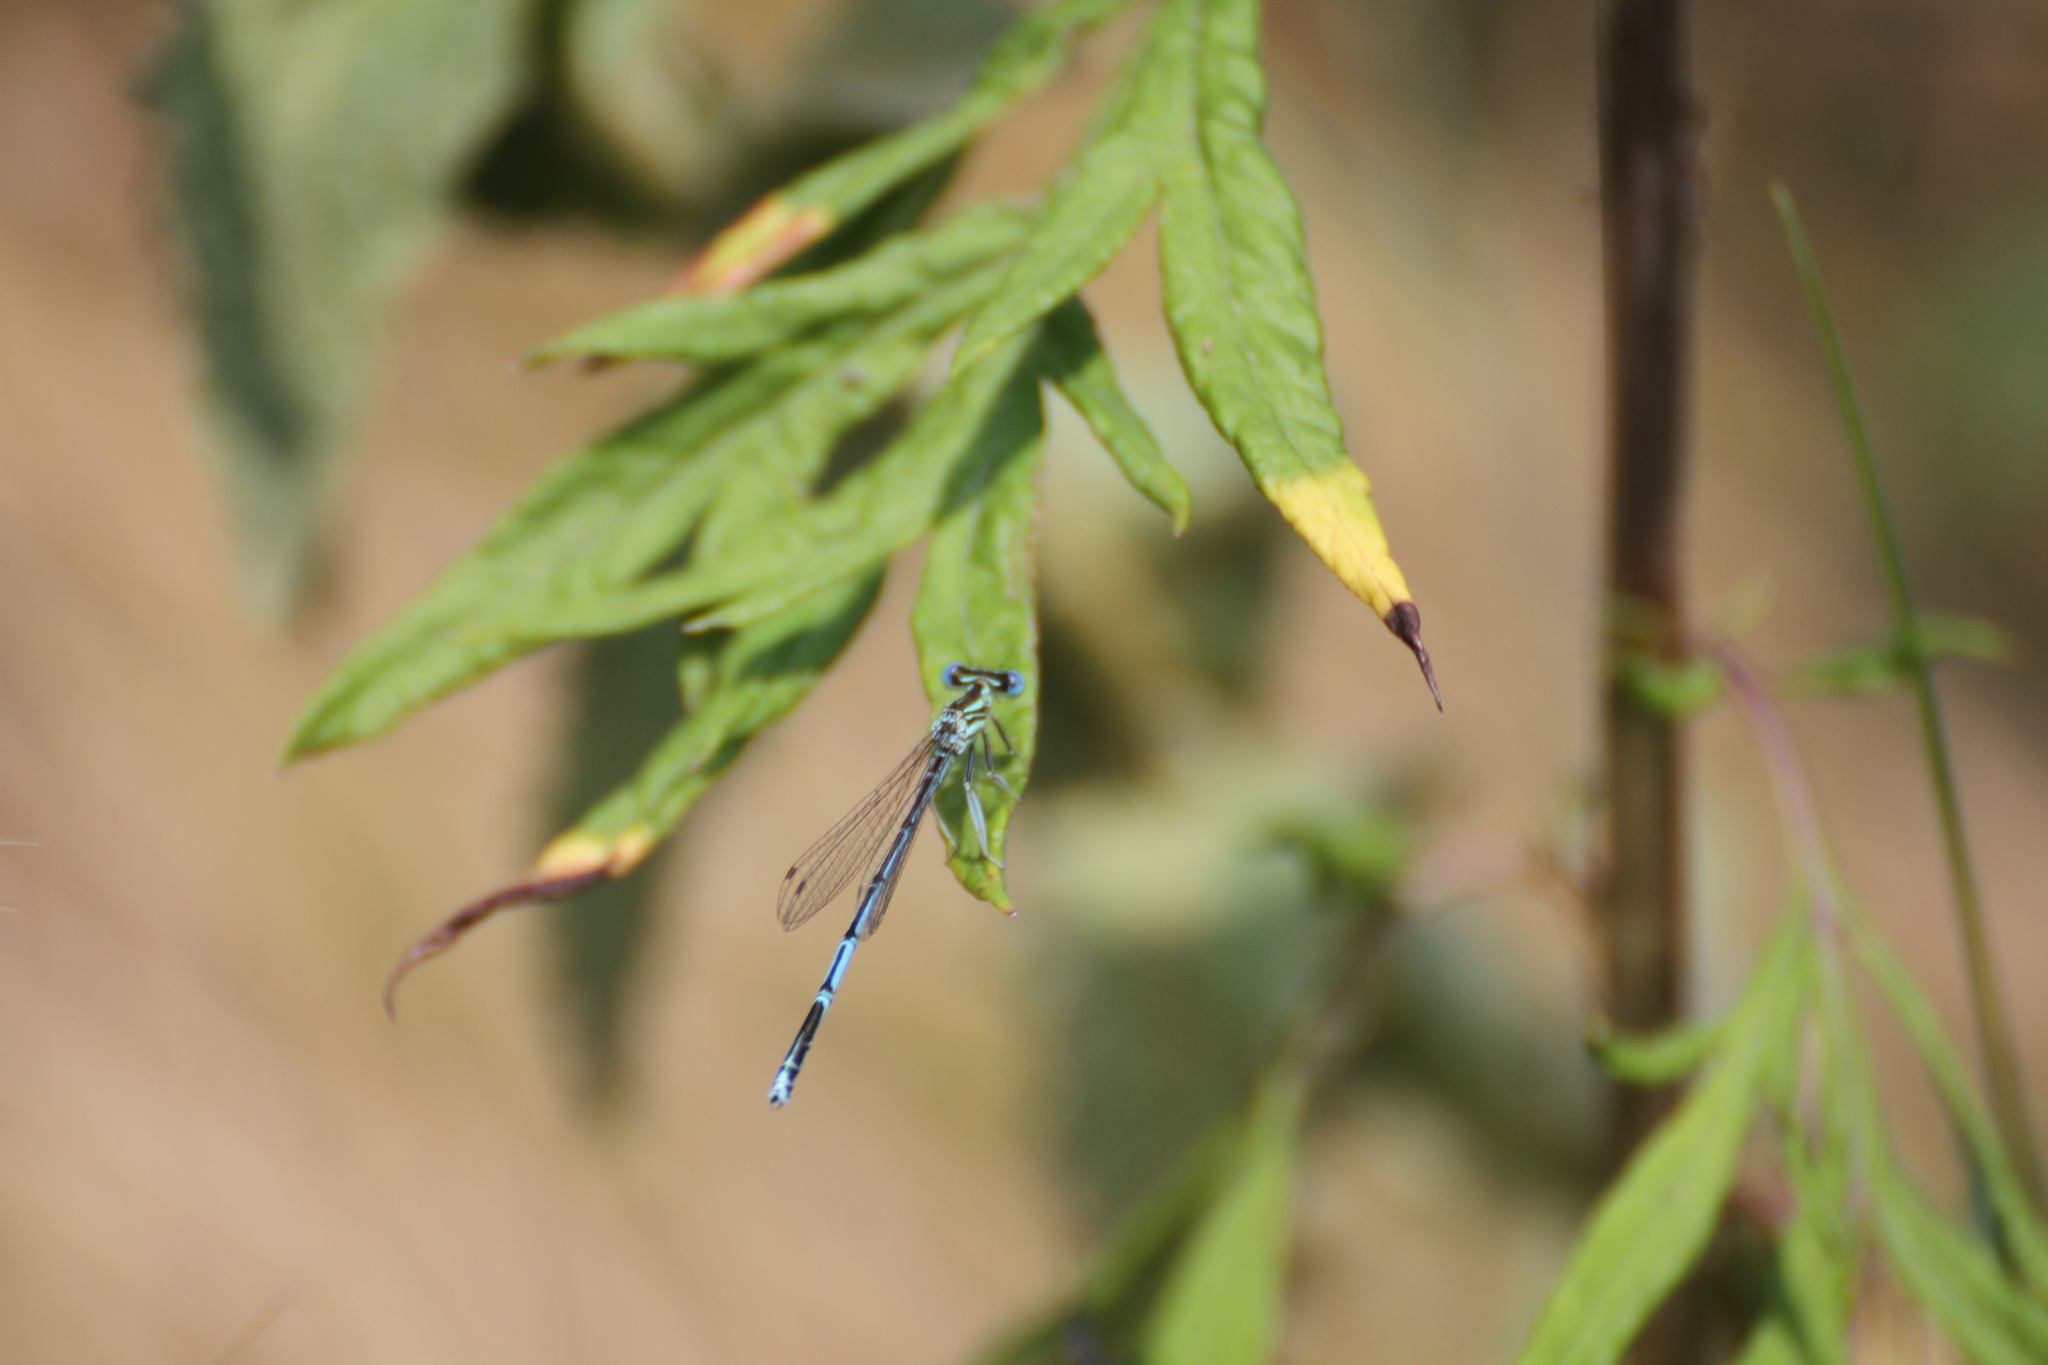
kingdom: Animalia
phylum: Arthropoda
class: Insecta
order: Odonata
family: Platycnemididae
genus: Platycnemis
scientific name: Platycnemis pennipes
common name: White-legged damselfly
